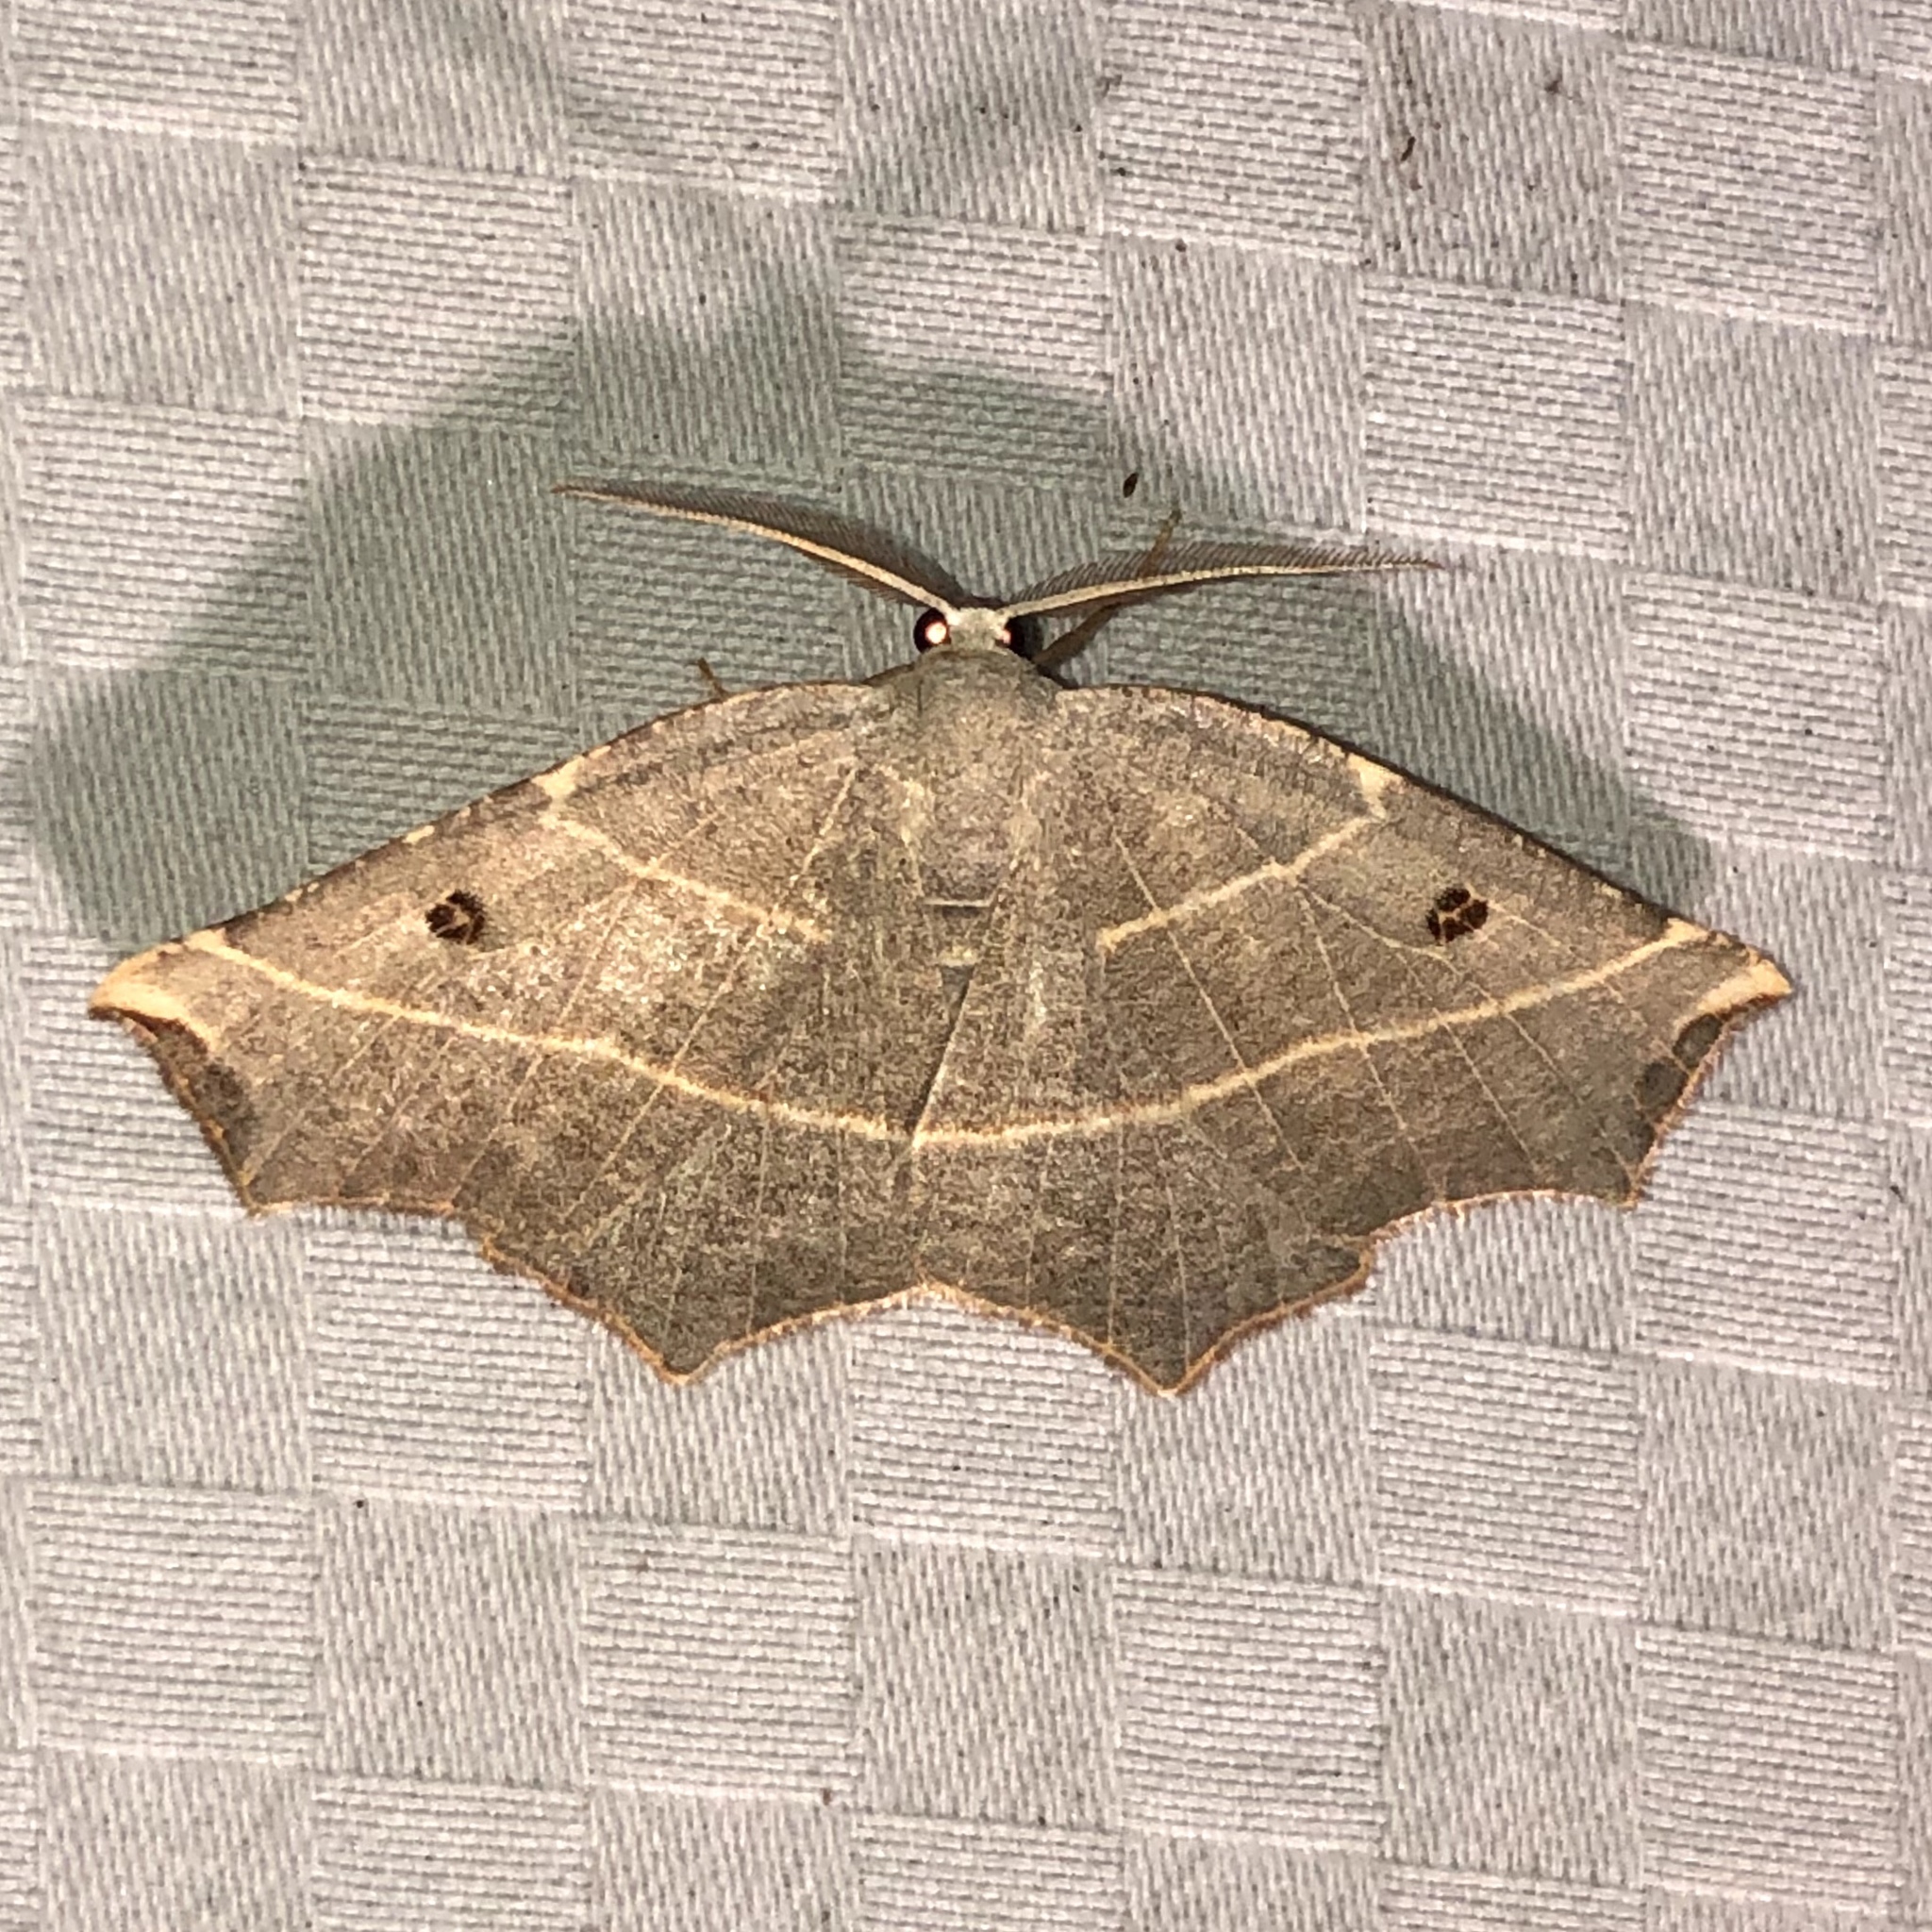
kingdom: Animalia
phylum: Arthropoda
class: Insecta
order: Lepidoptera
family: Geometridae
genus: Metanema
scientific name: Metanema inatomaria
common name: Pale metanema
